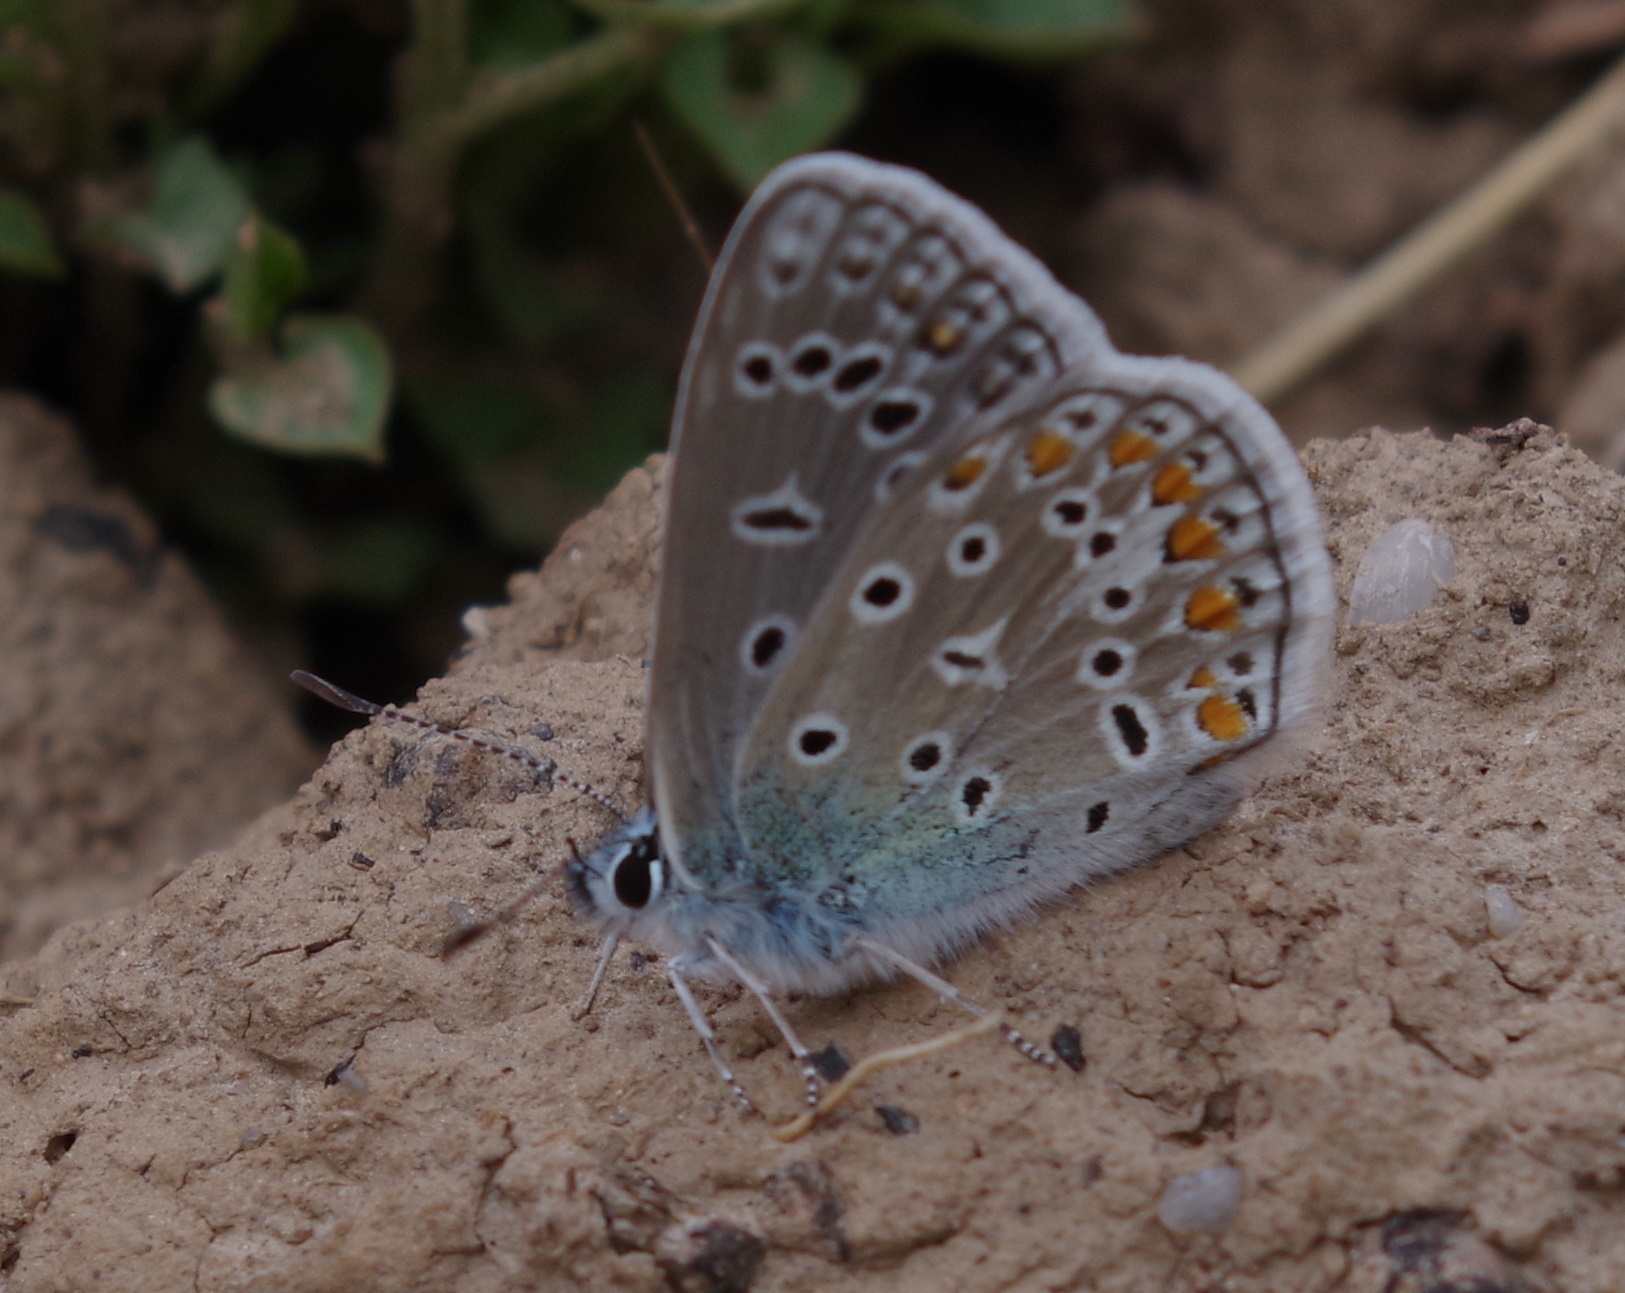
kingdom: Animalia
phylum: Arthropoda
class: Insecta
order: Lepidoptera
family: Lycaenidae
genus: Polyommatus
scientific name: Polyommatus icarus
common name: Common blue
